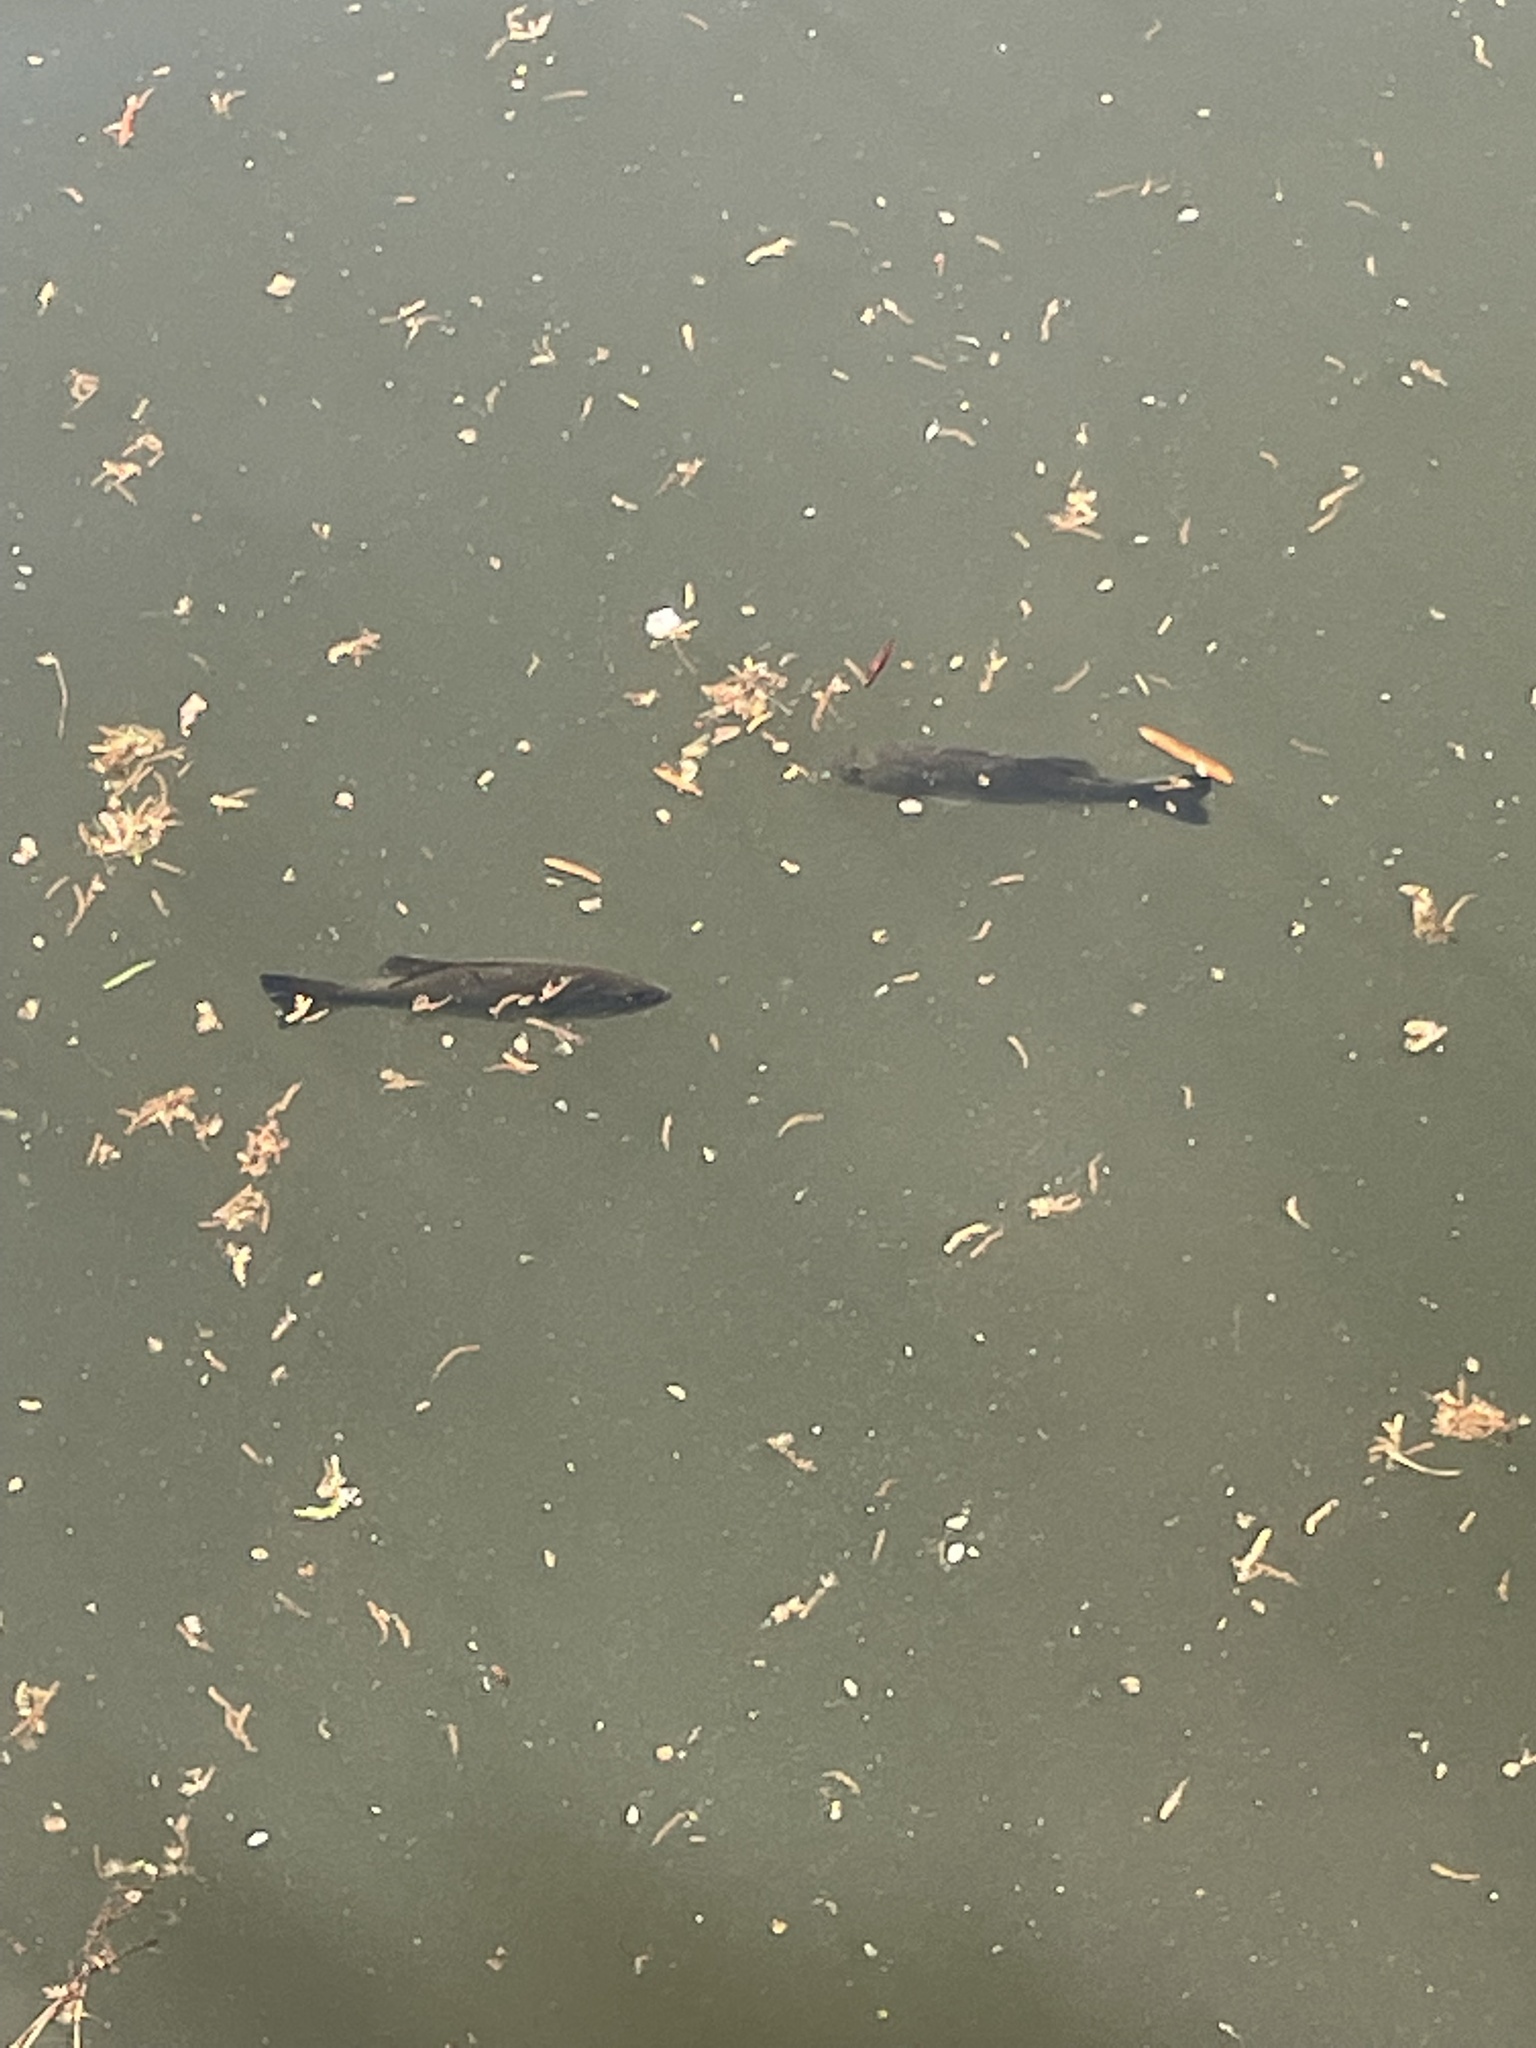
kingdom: Animalia
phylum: Chordata
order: Perciformes
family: Centrarchidae
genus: Micropterus
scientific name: Micropterus salmoides
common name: Largemouth bass
